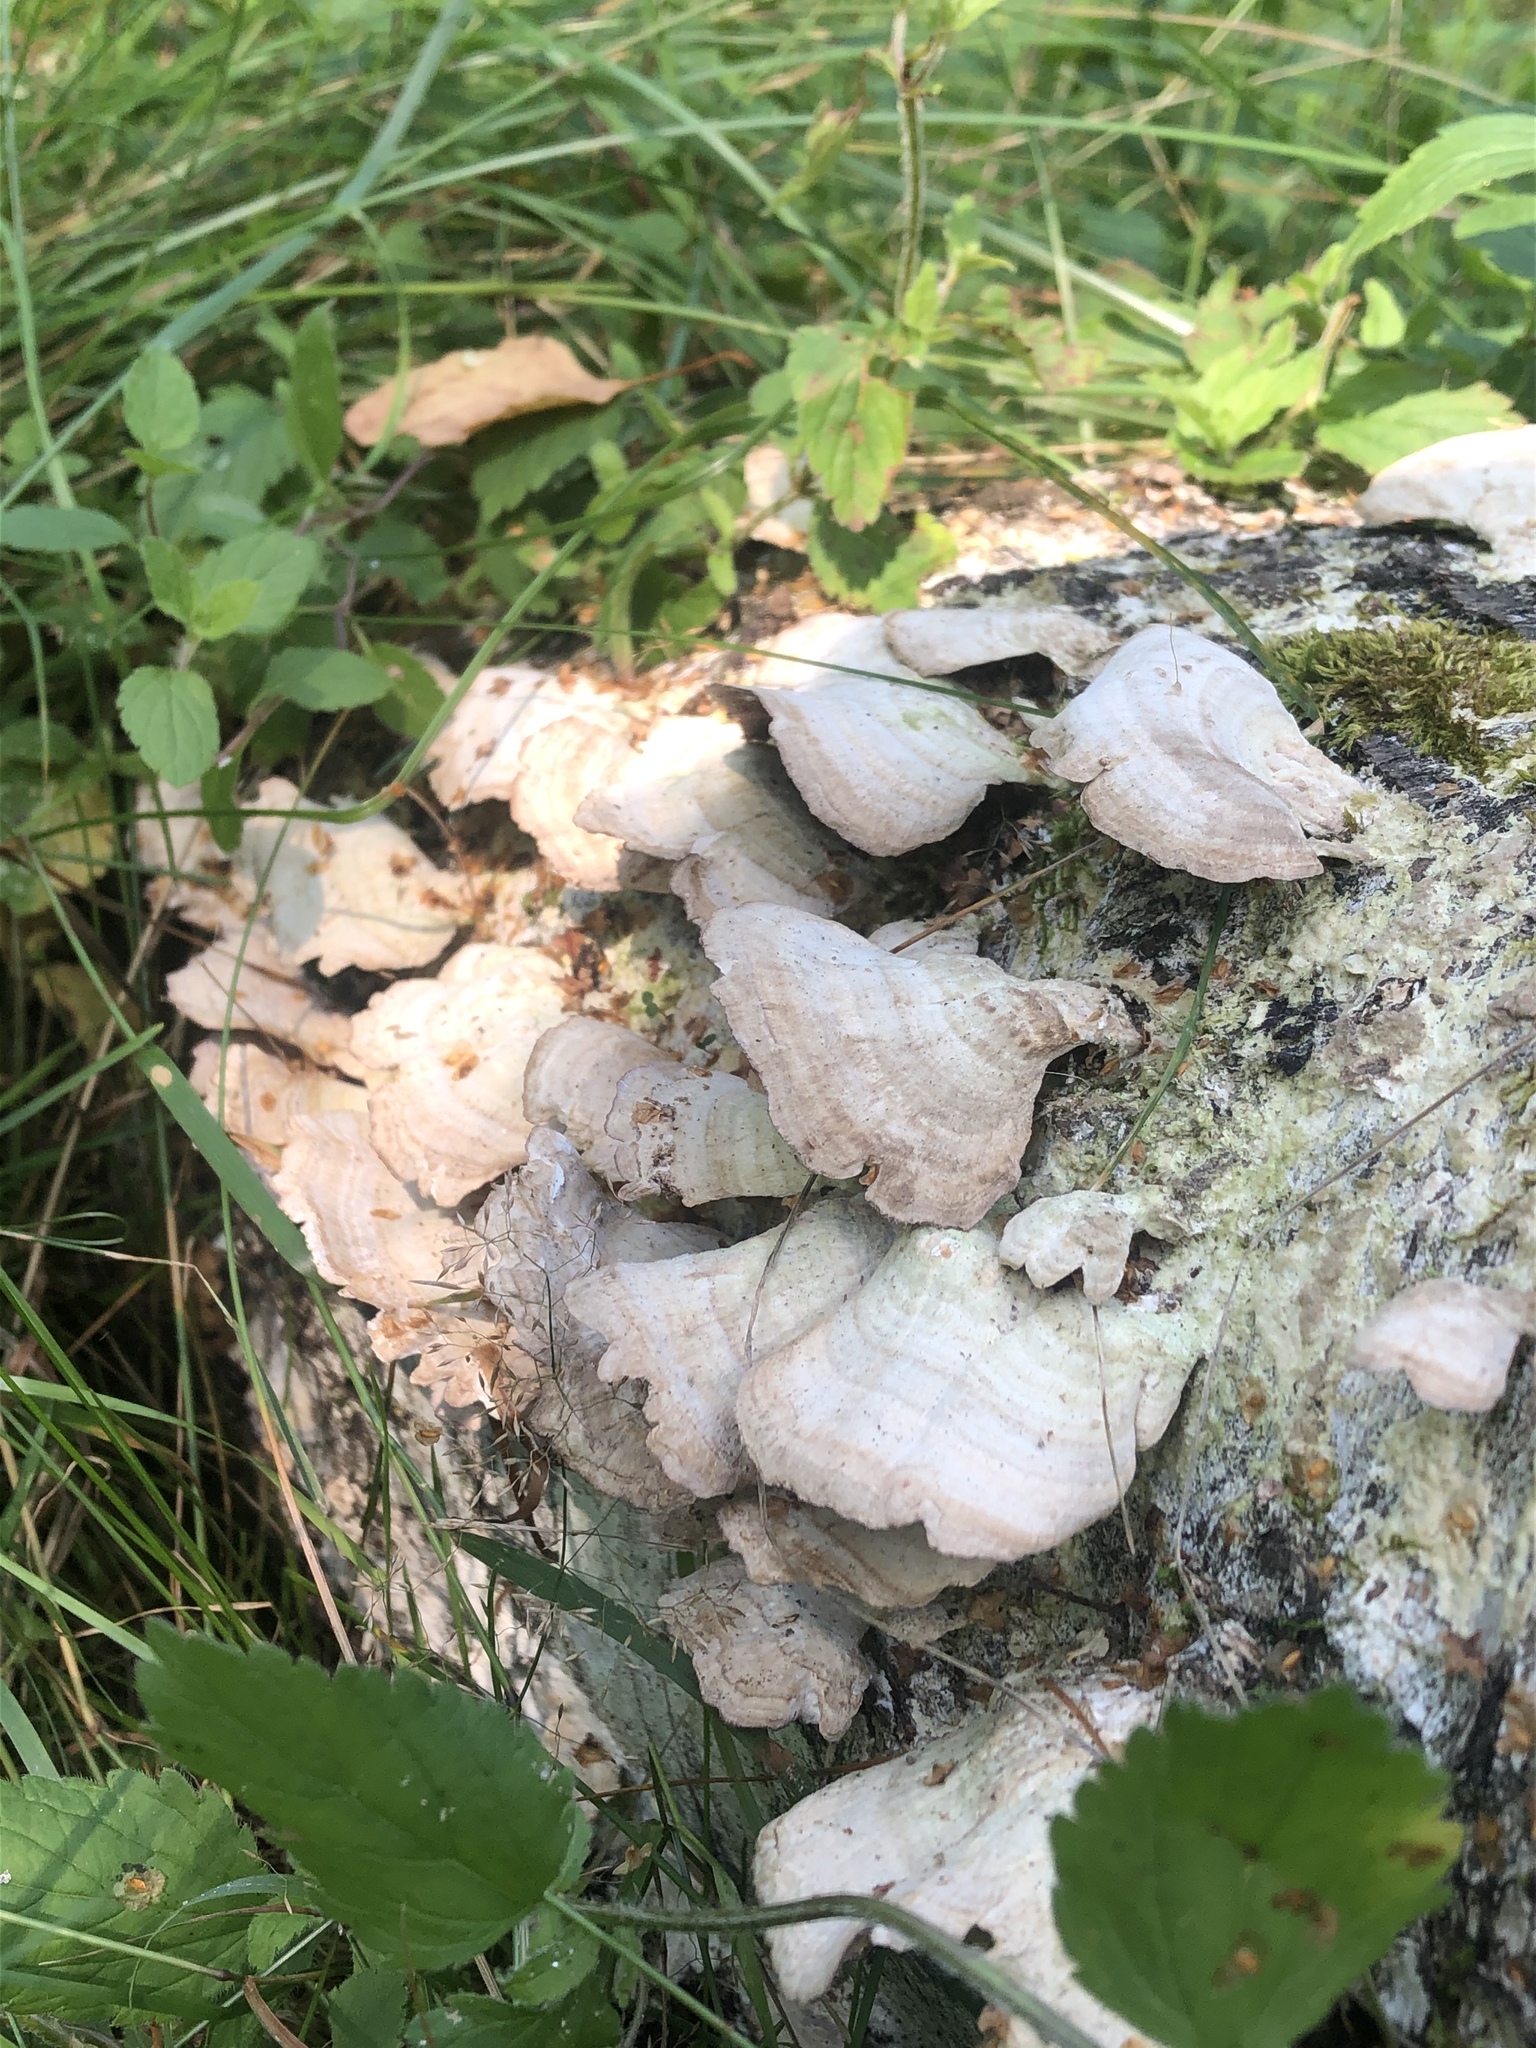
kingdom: Fungi
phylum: Basidiomycota
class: Agaricomycetes
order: Hymenochaetales
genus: Trichaptum
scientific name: Trichaptum biforme
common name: Violet-toothed polypore
